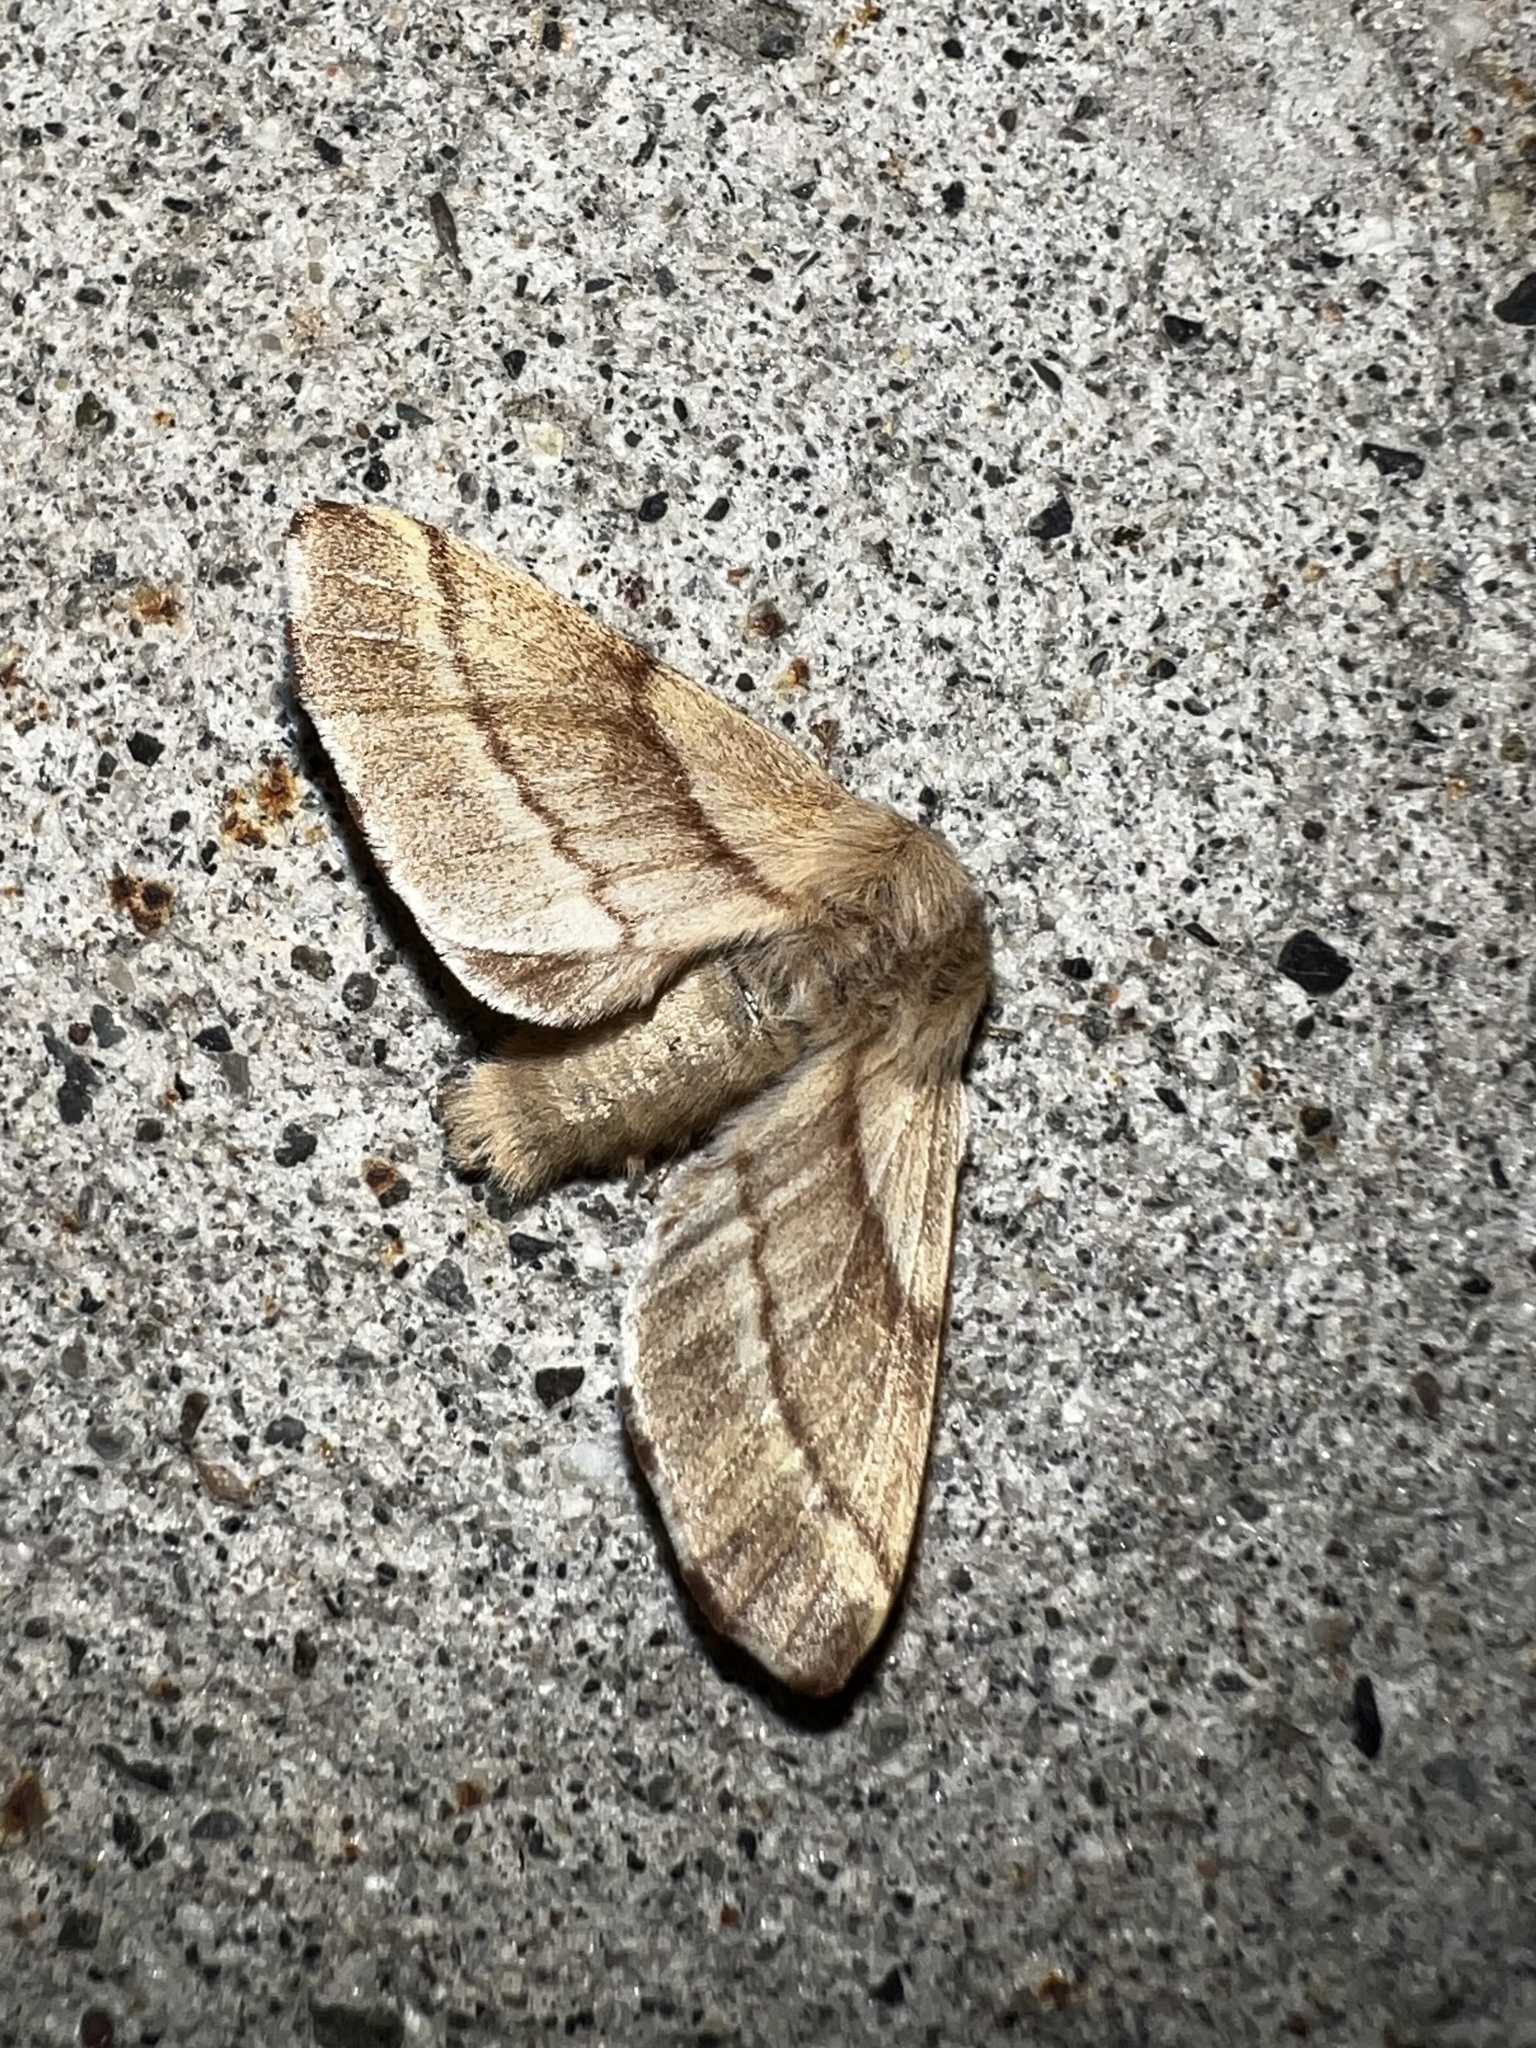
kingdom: Animalia
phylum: Arthropoda
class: Insecta
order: Lepidoptera
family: Lasiocampidae
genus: Malacosoma
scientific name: Malacosoma californica
